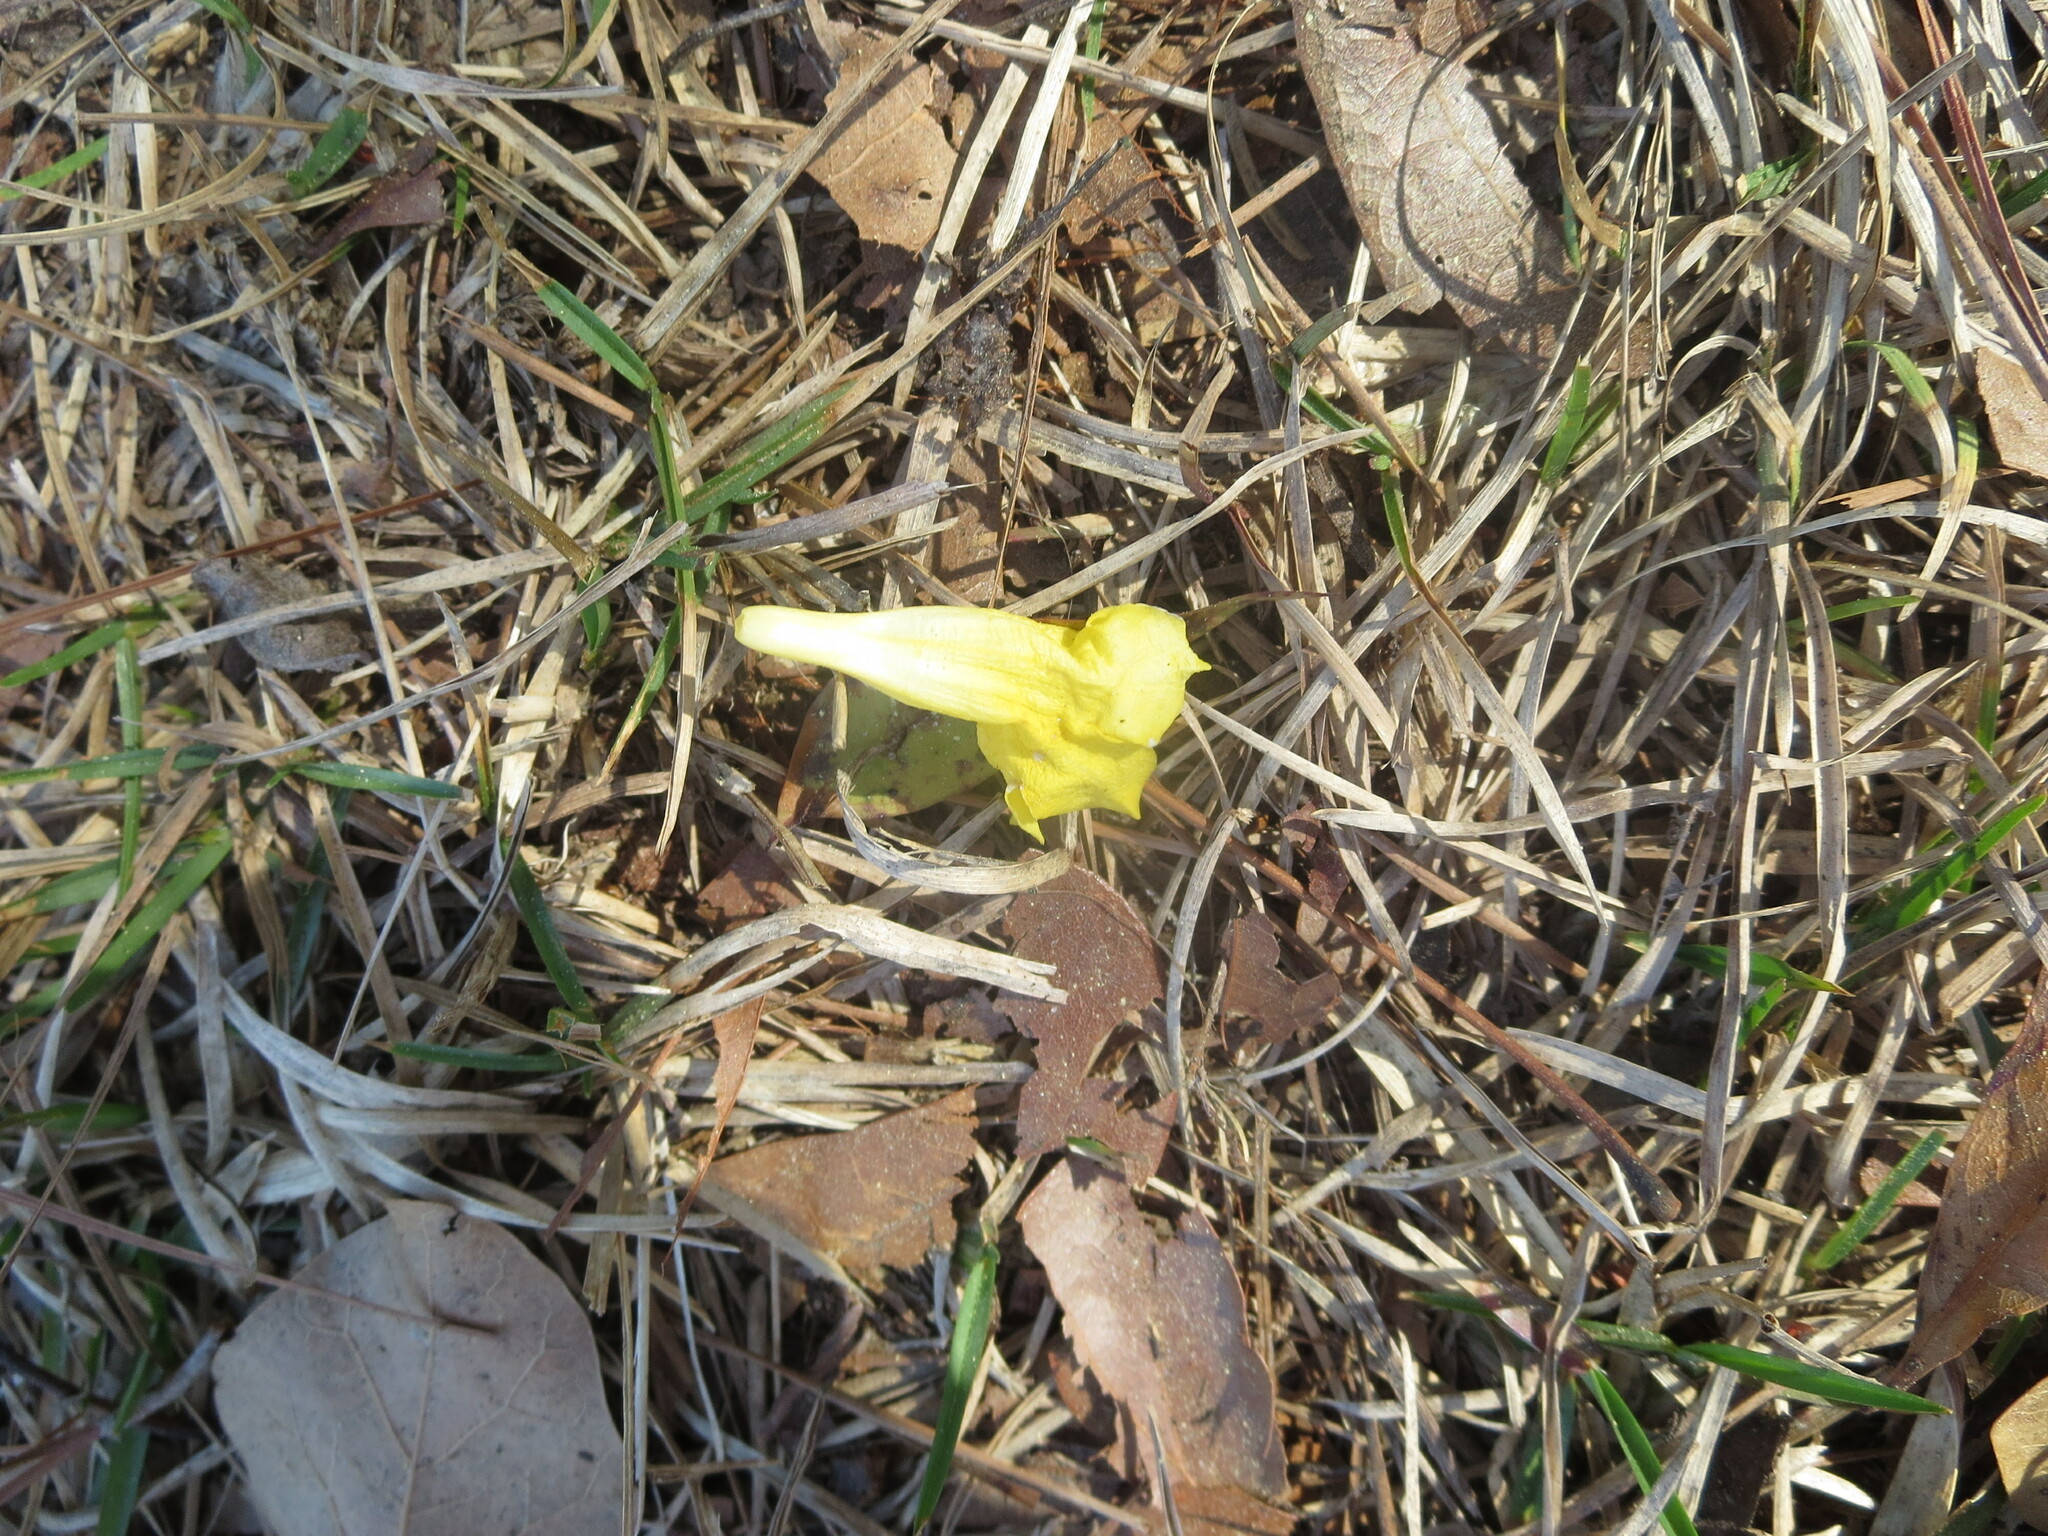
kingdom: Plantae
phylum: Tracheophyta
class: Magnoliopsida
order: Gentianales
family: Gelsemiaceae
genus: Gelsemium
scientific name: Gelsemium sempervirens
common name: Carolina-jasmine
